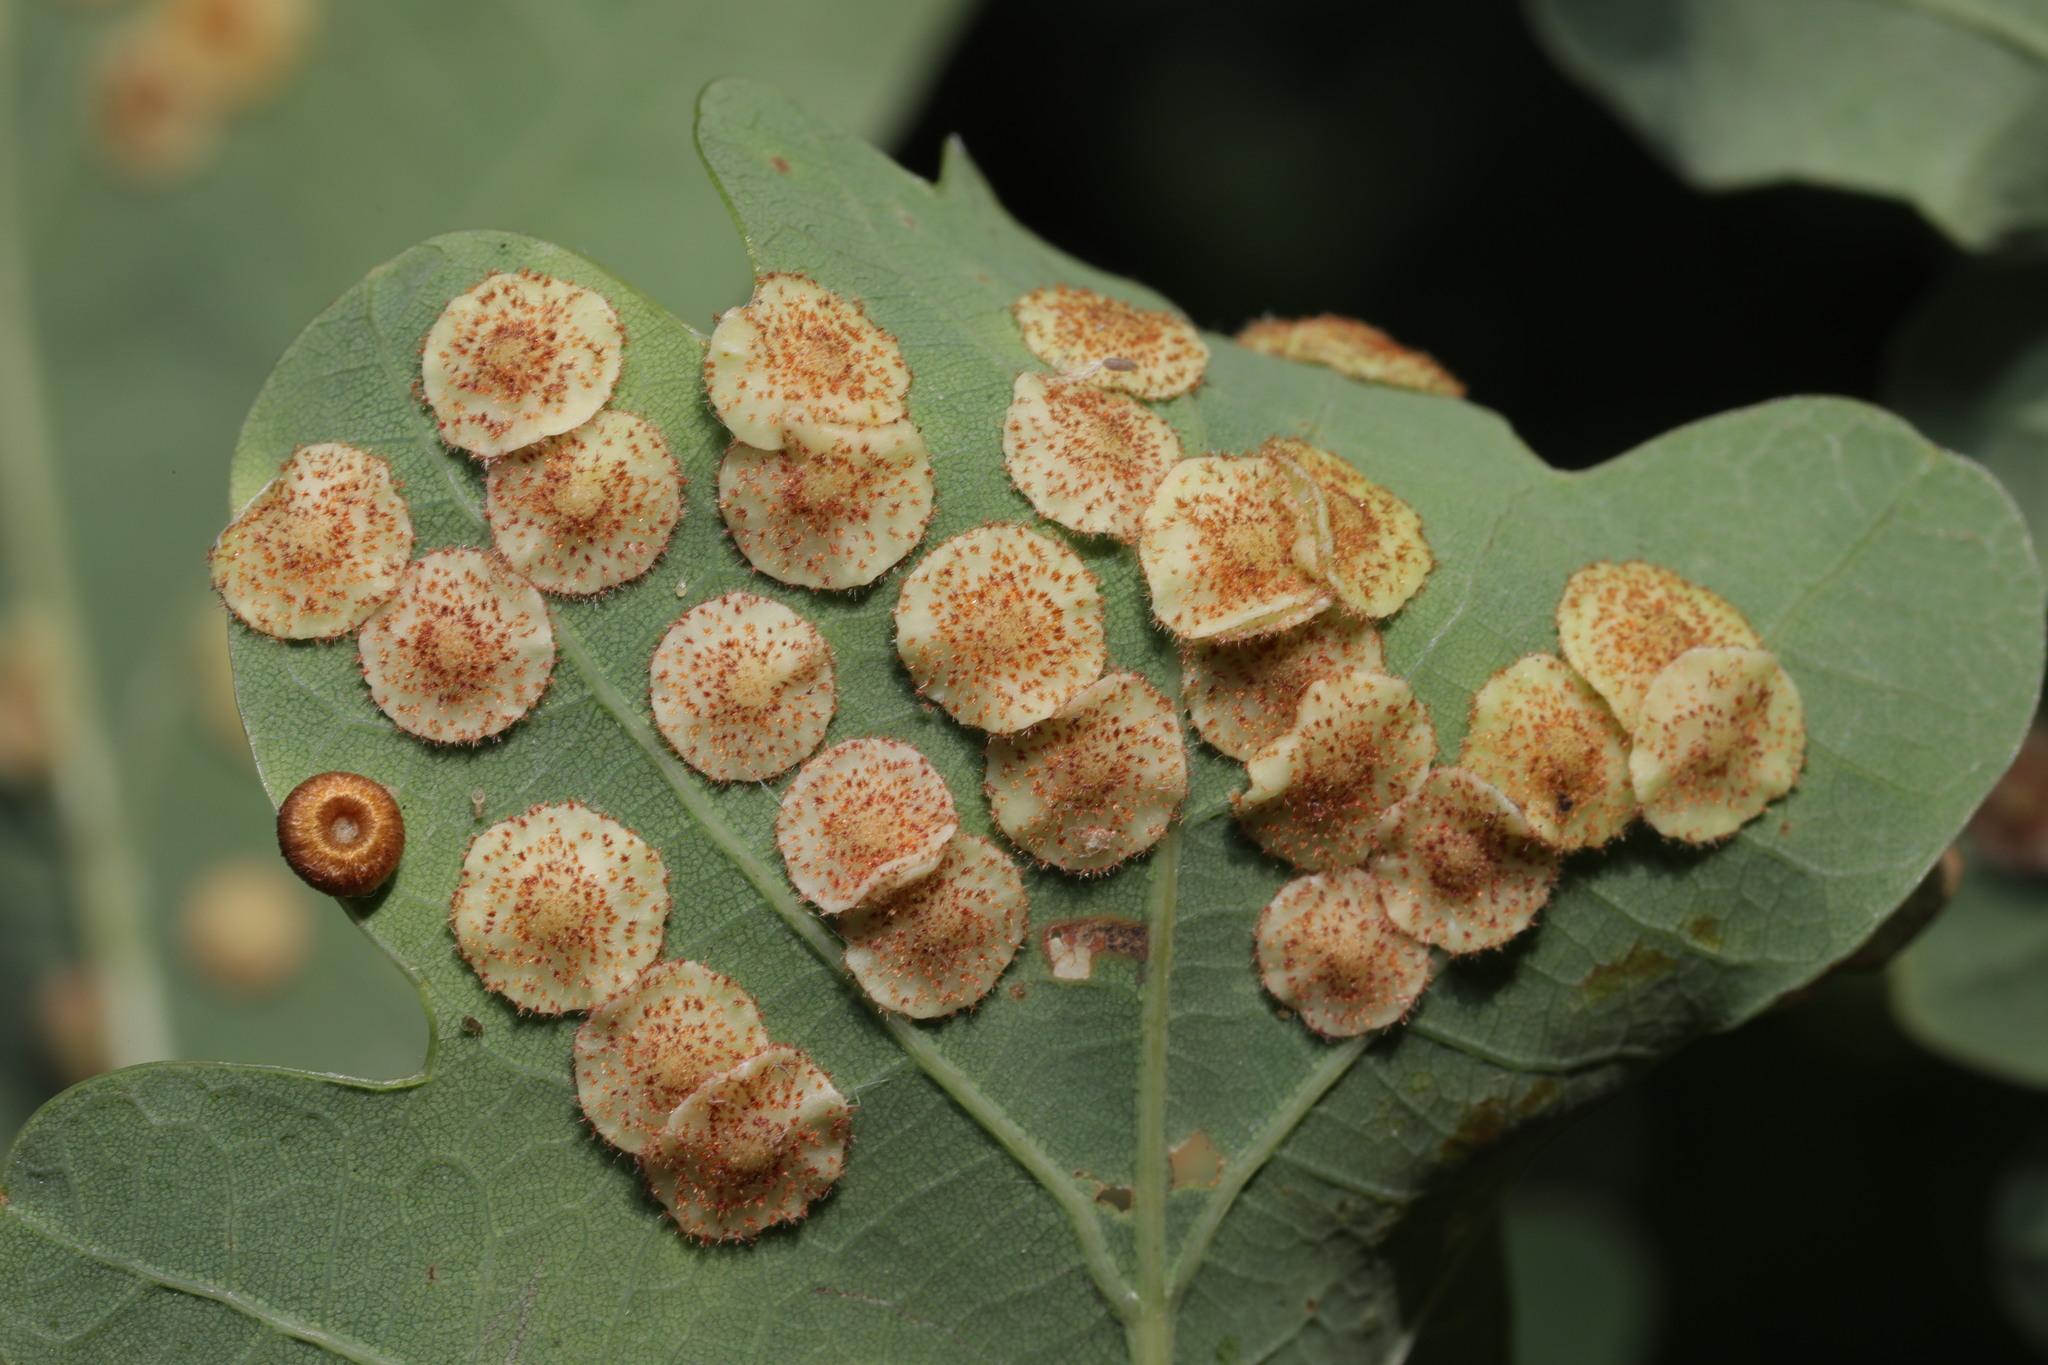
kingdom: Animalia
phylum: Arthropoda
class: Insecta
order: Hymenoptera
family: Cynipidae
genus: Neuroterus
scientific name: Neuroterus quercusbaccarum
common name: Common spangle gall
